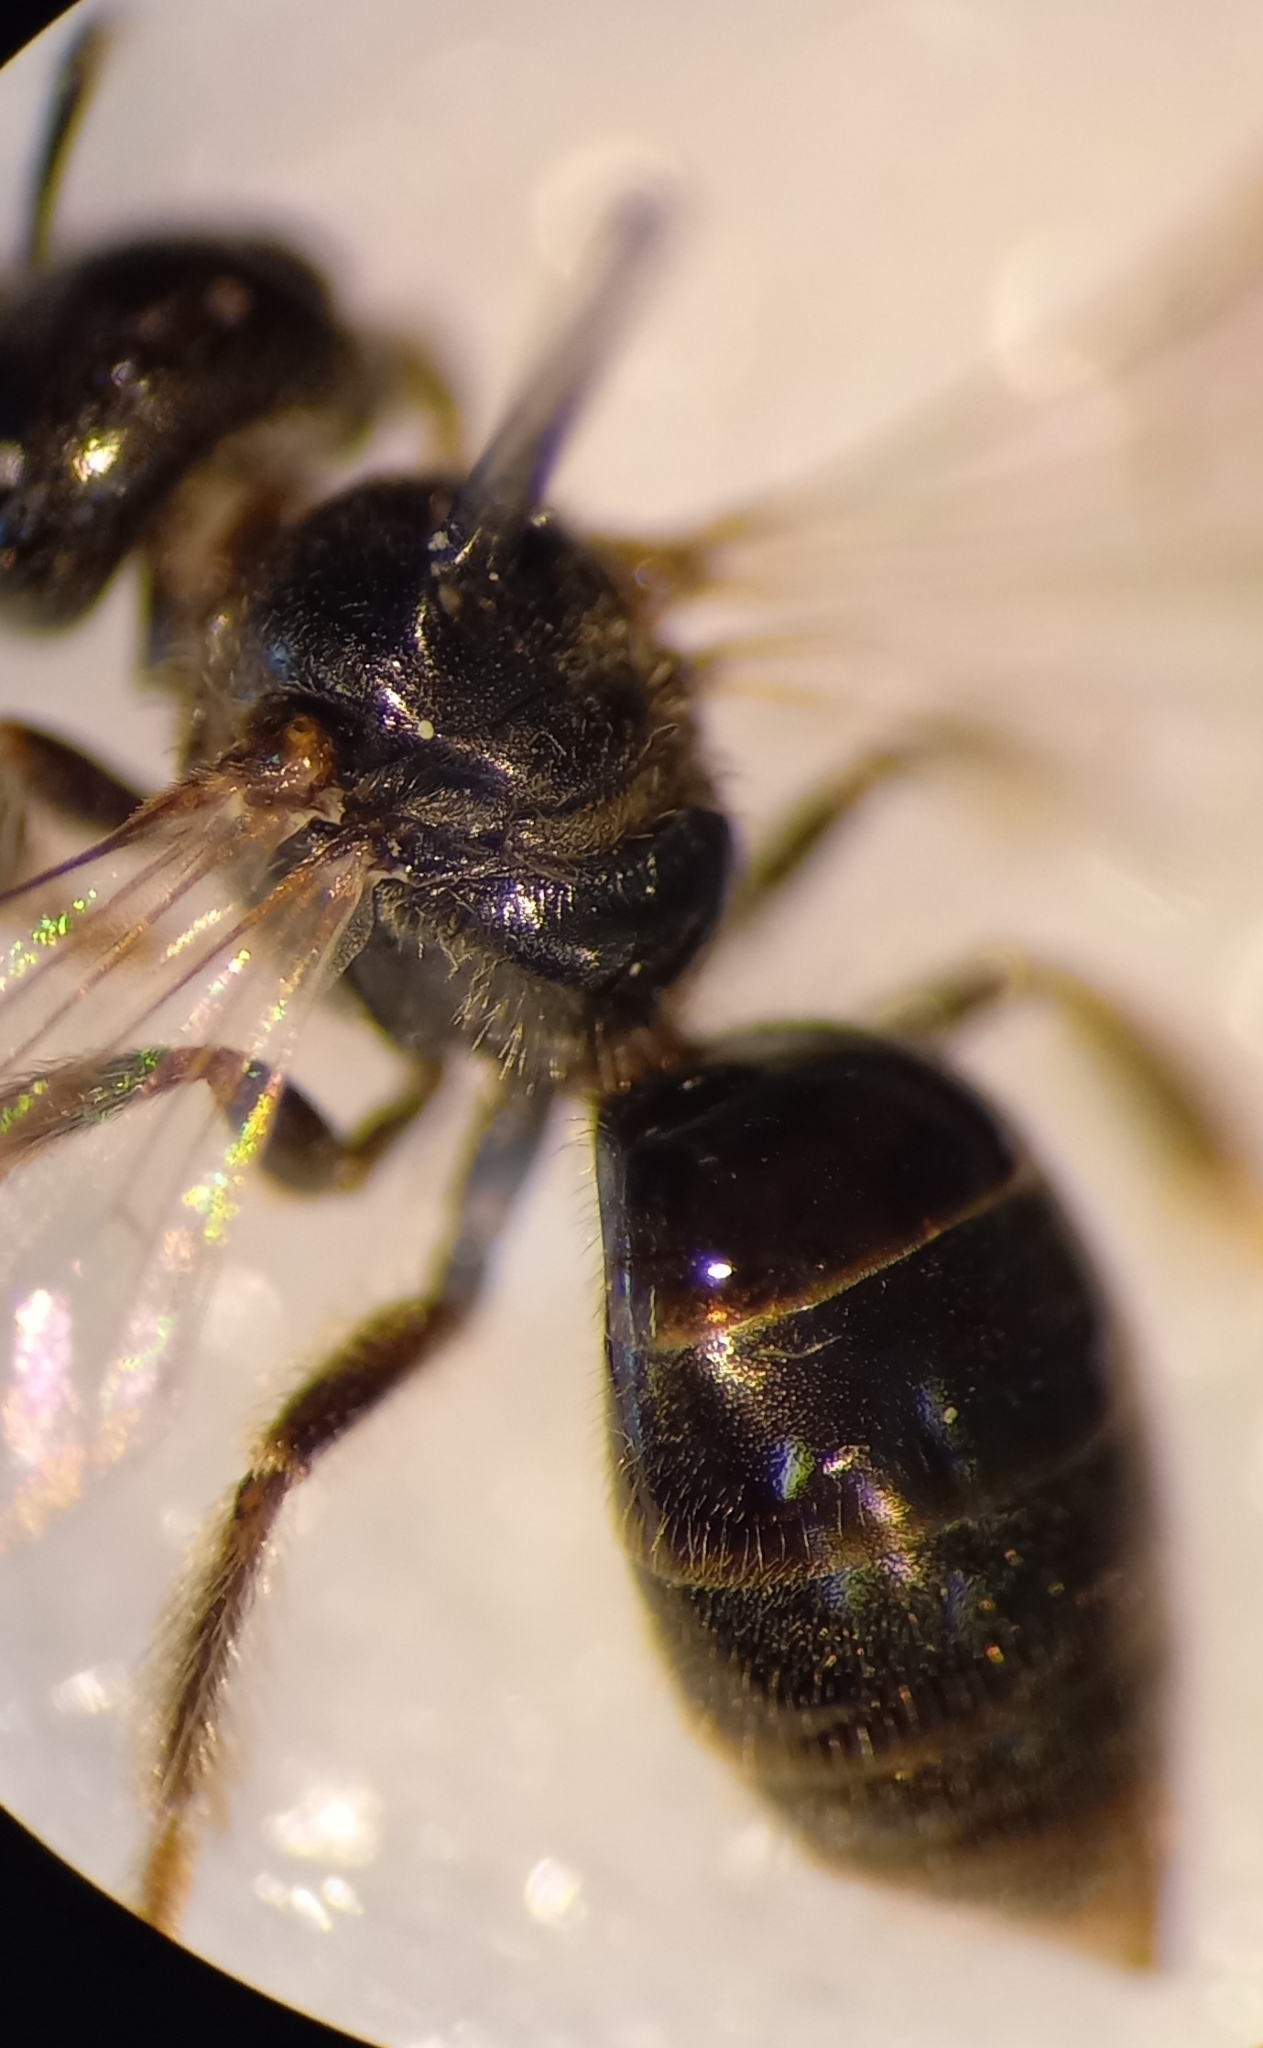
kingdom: Animalia
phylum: Arthropoda
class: Insecta
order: Hymenoptera
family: Halictidae
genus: Lasioglossum
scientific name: Lasioglossum politum
